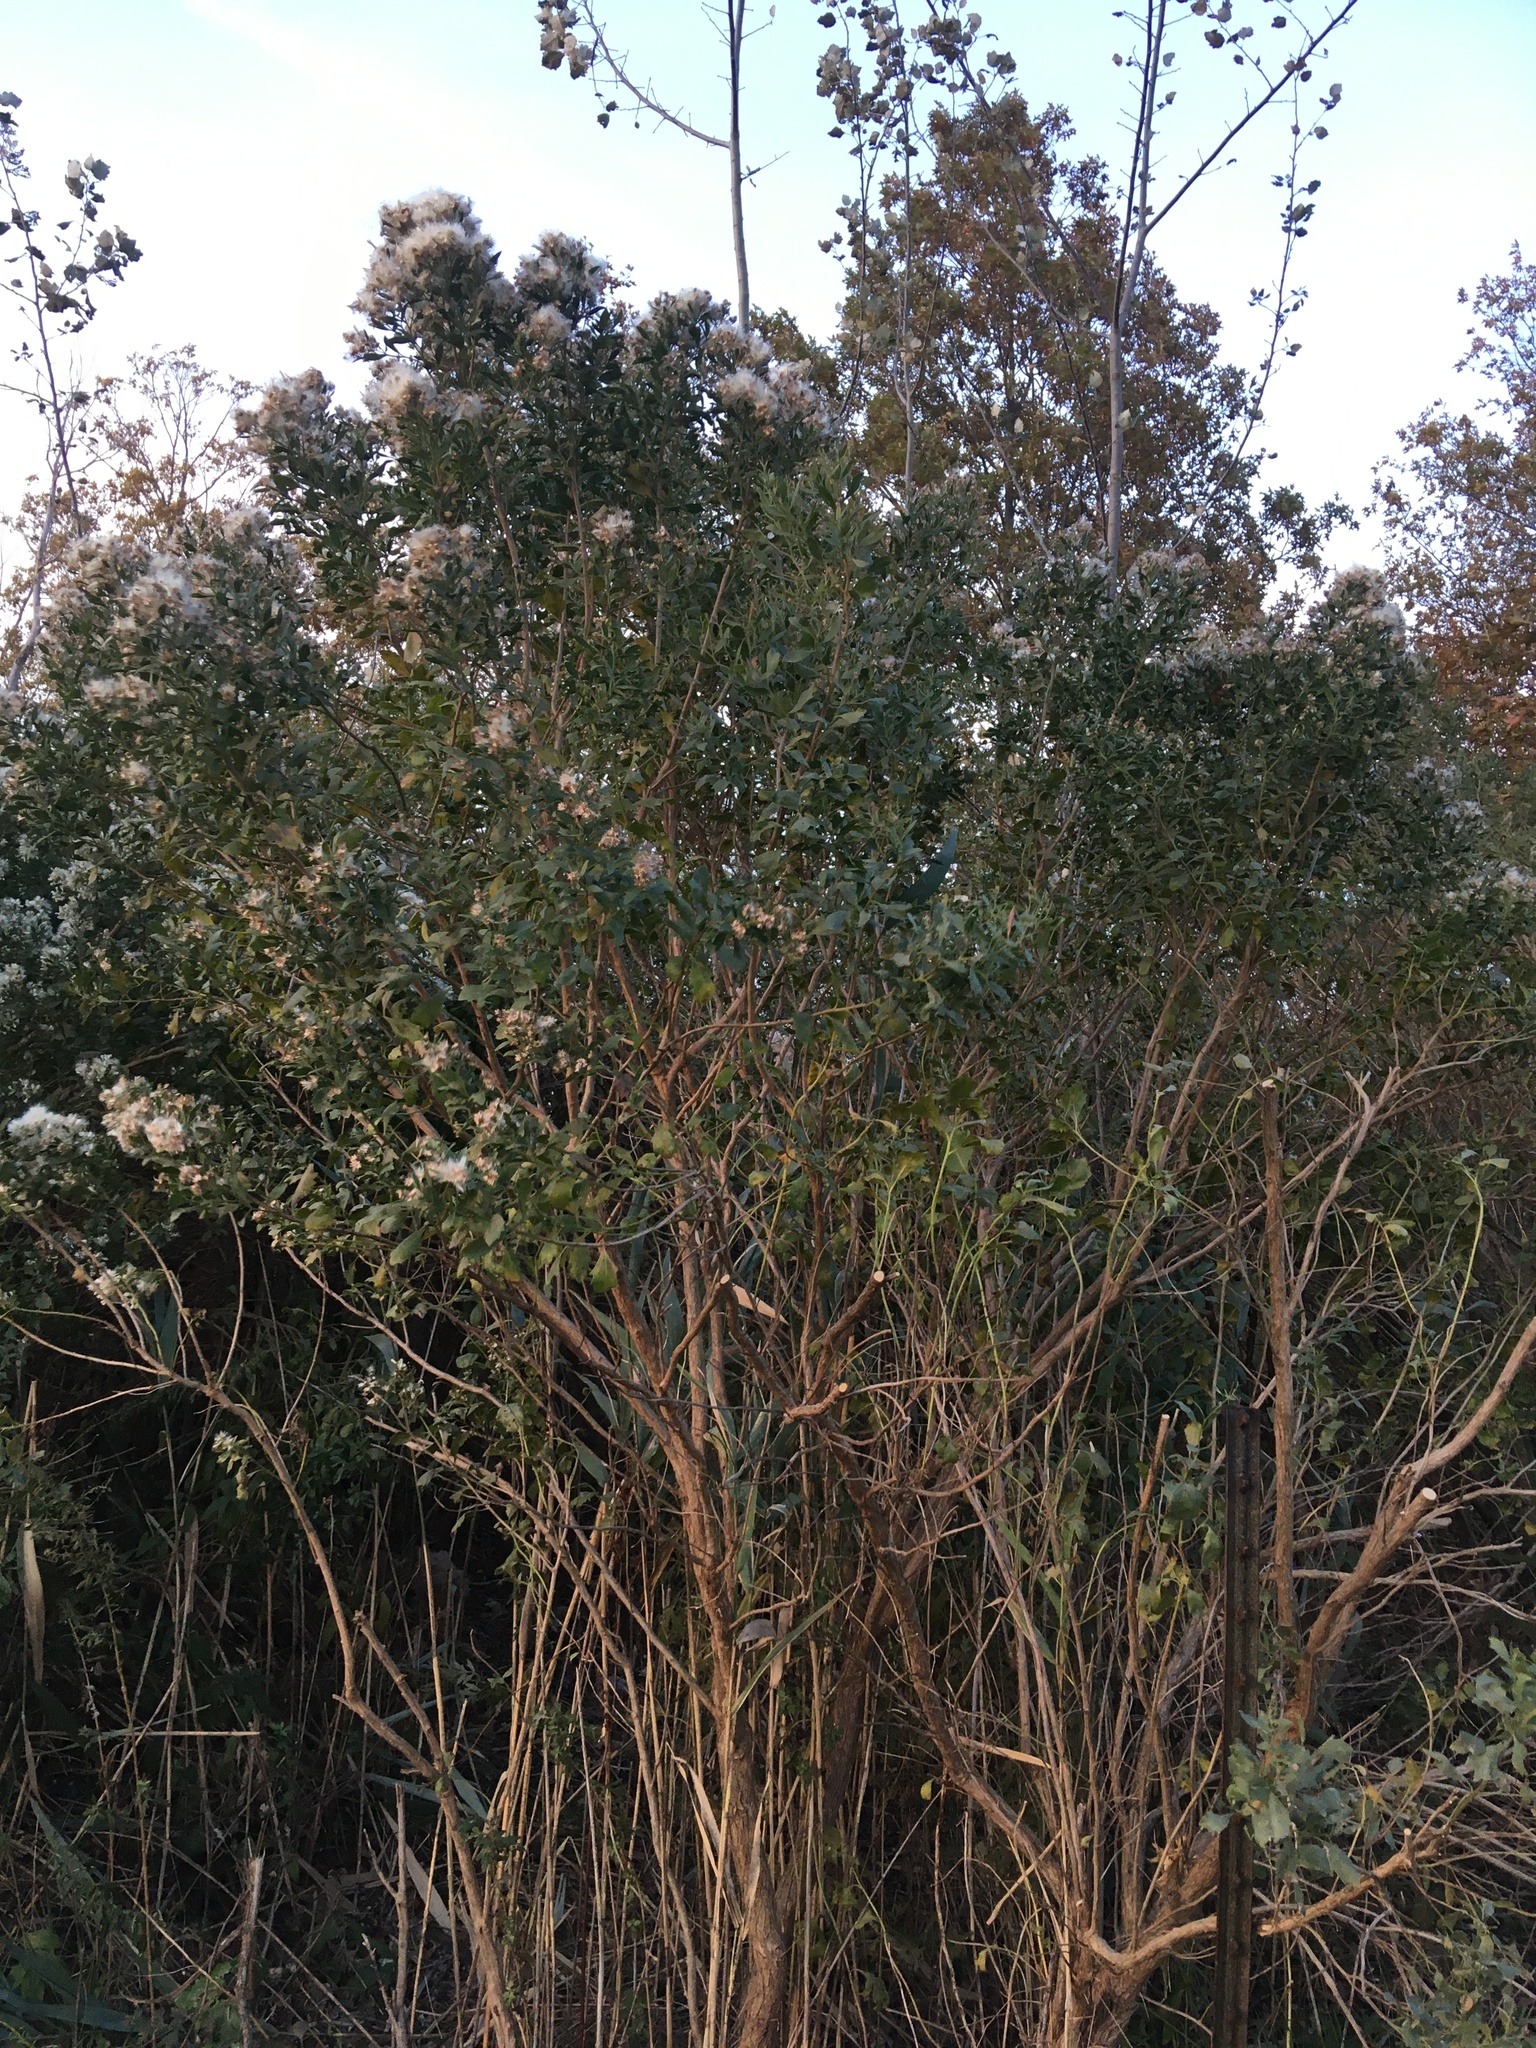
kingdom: Plantae
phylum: Tracheophyta
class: Magnoliopsida
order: Asterales
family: Asteraceae
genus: Baccharis
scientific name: Baccharis halimifolia
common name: Eastern baccharis
